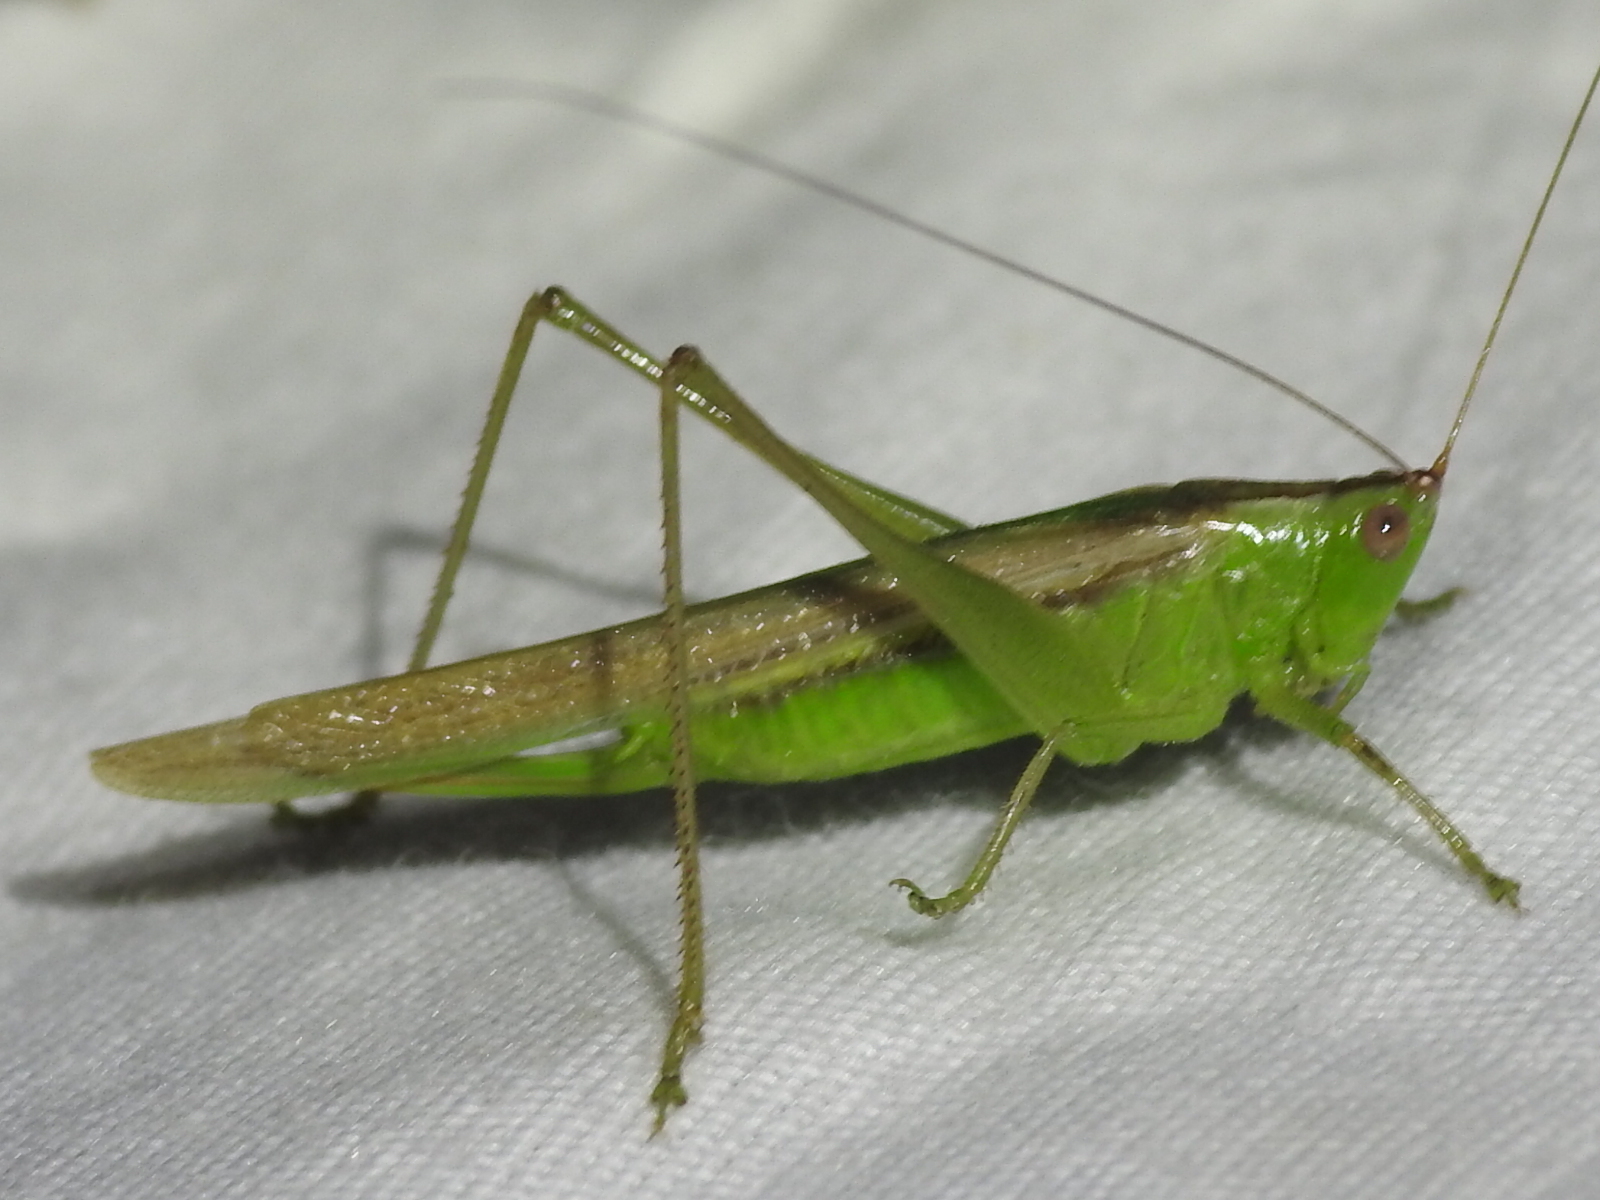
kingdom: Animalia
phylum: Arthropoda
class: Insecta
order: Orthoptera
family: Tettigoniidae
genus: Conocephalus
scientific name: Conocephalus fasciatus
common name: Slender meadow katydid
